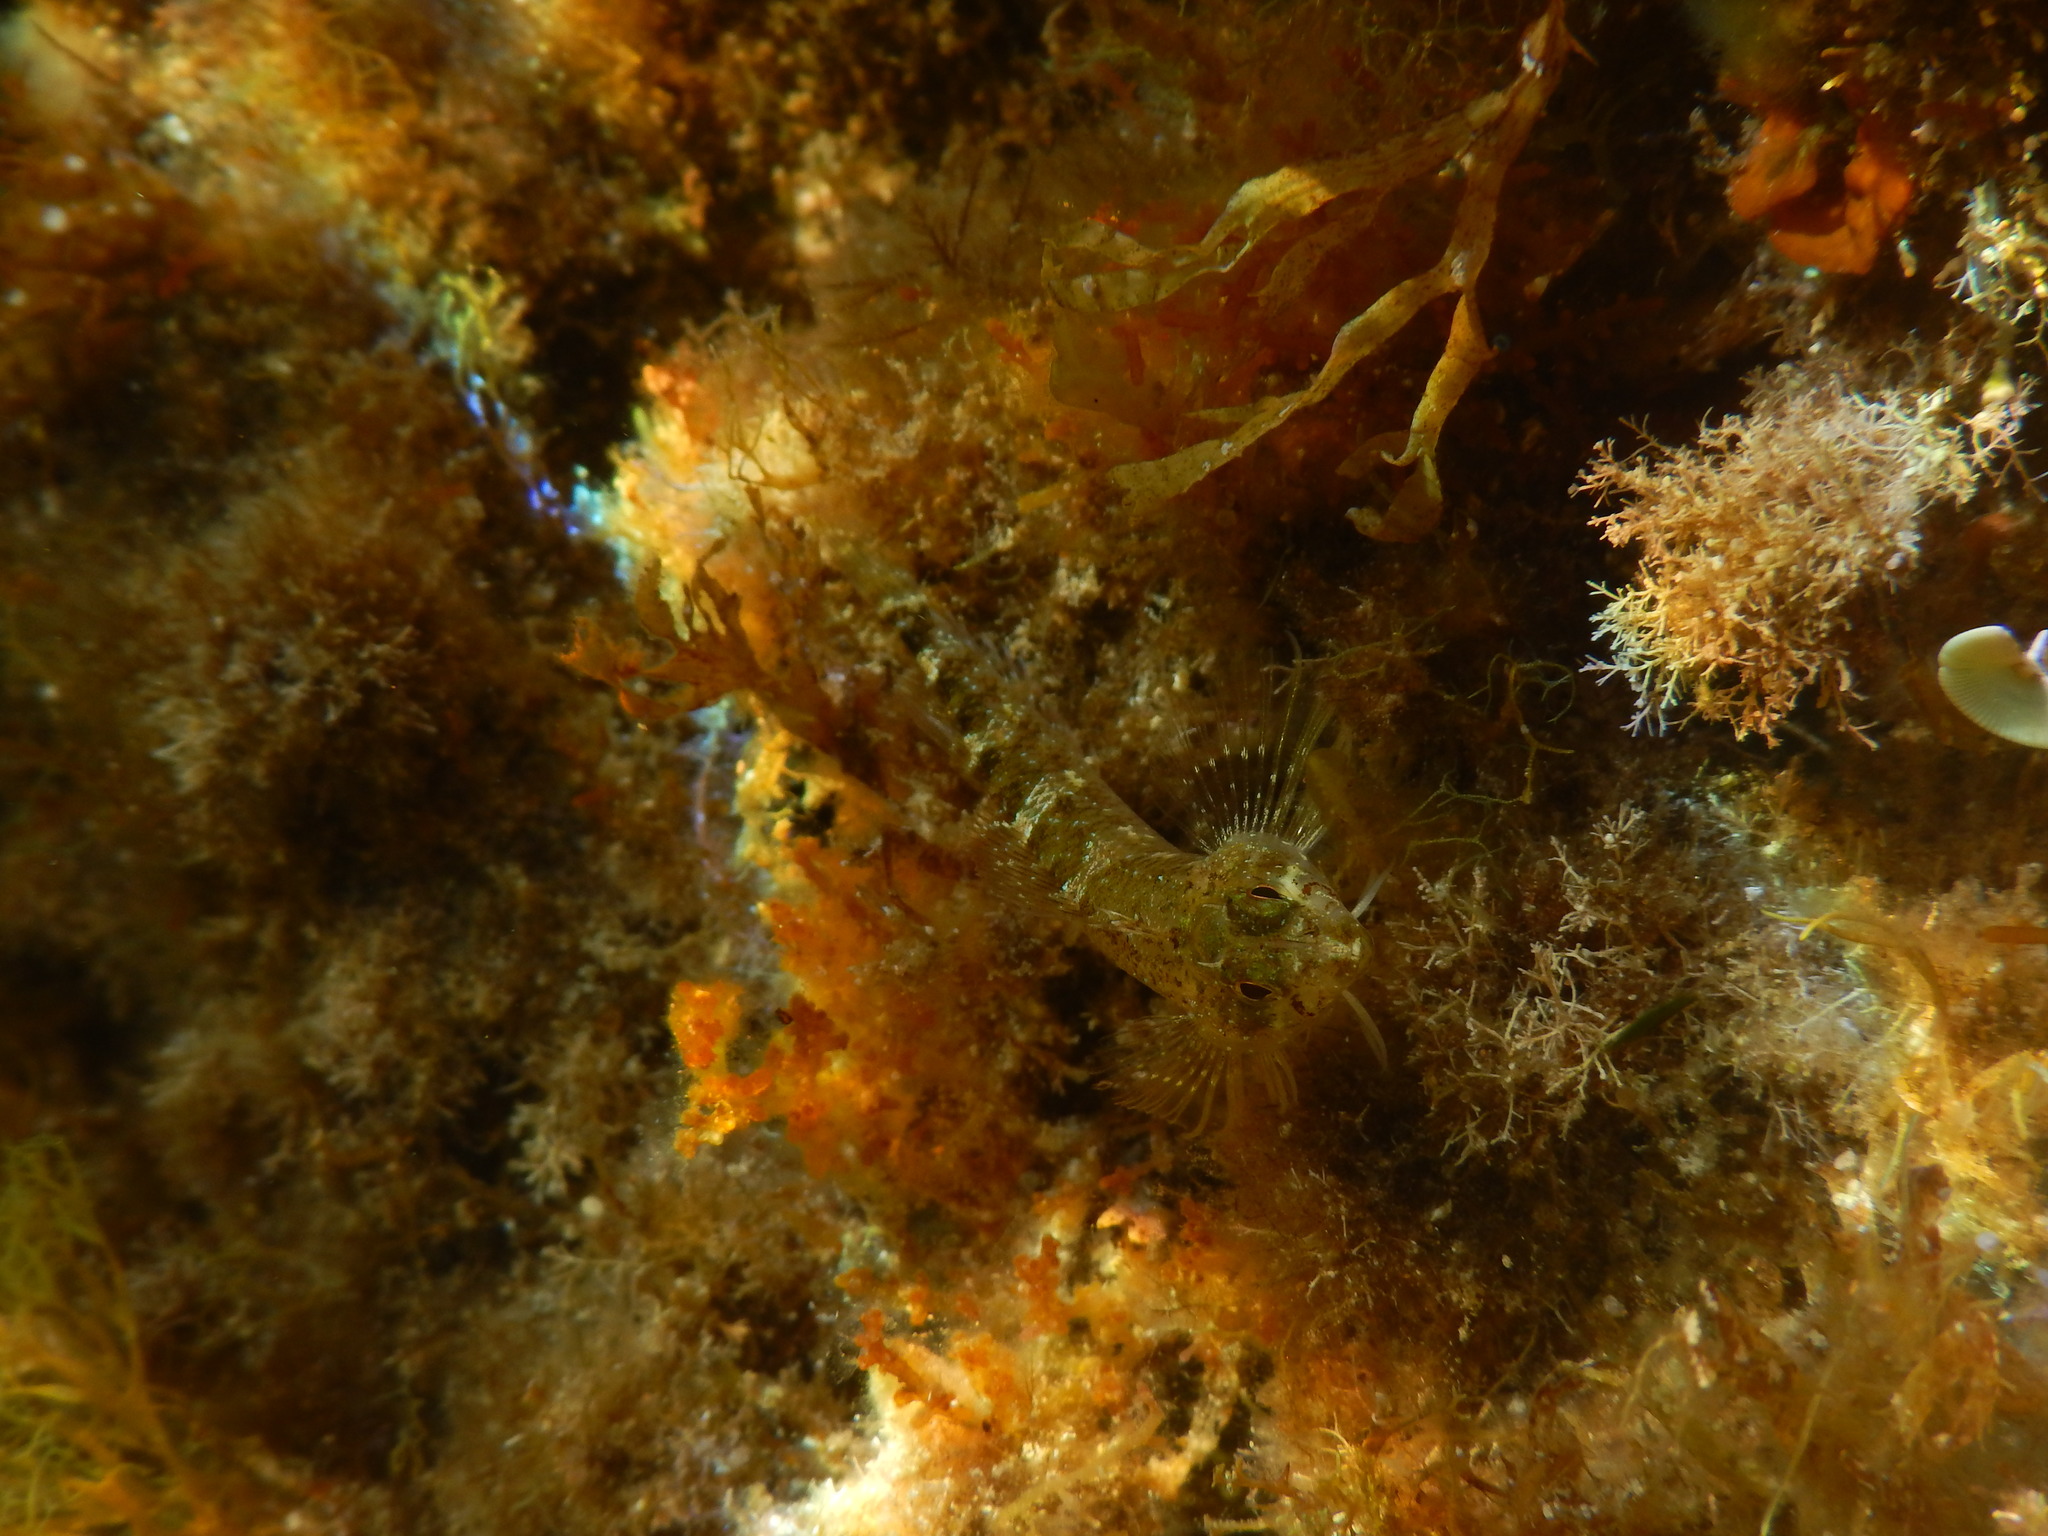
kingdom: Animalia
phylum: Chordata
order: Perciformes
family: Tripterygiidae
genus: Tripterygion
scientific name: Tripterygion tripteronotum
